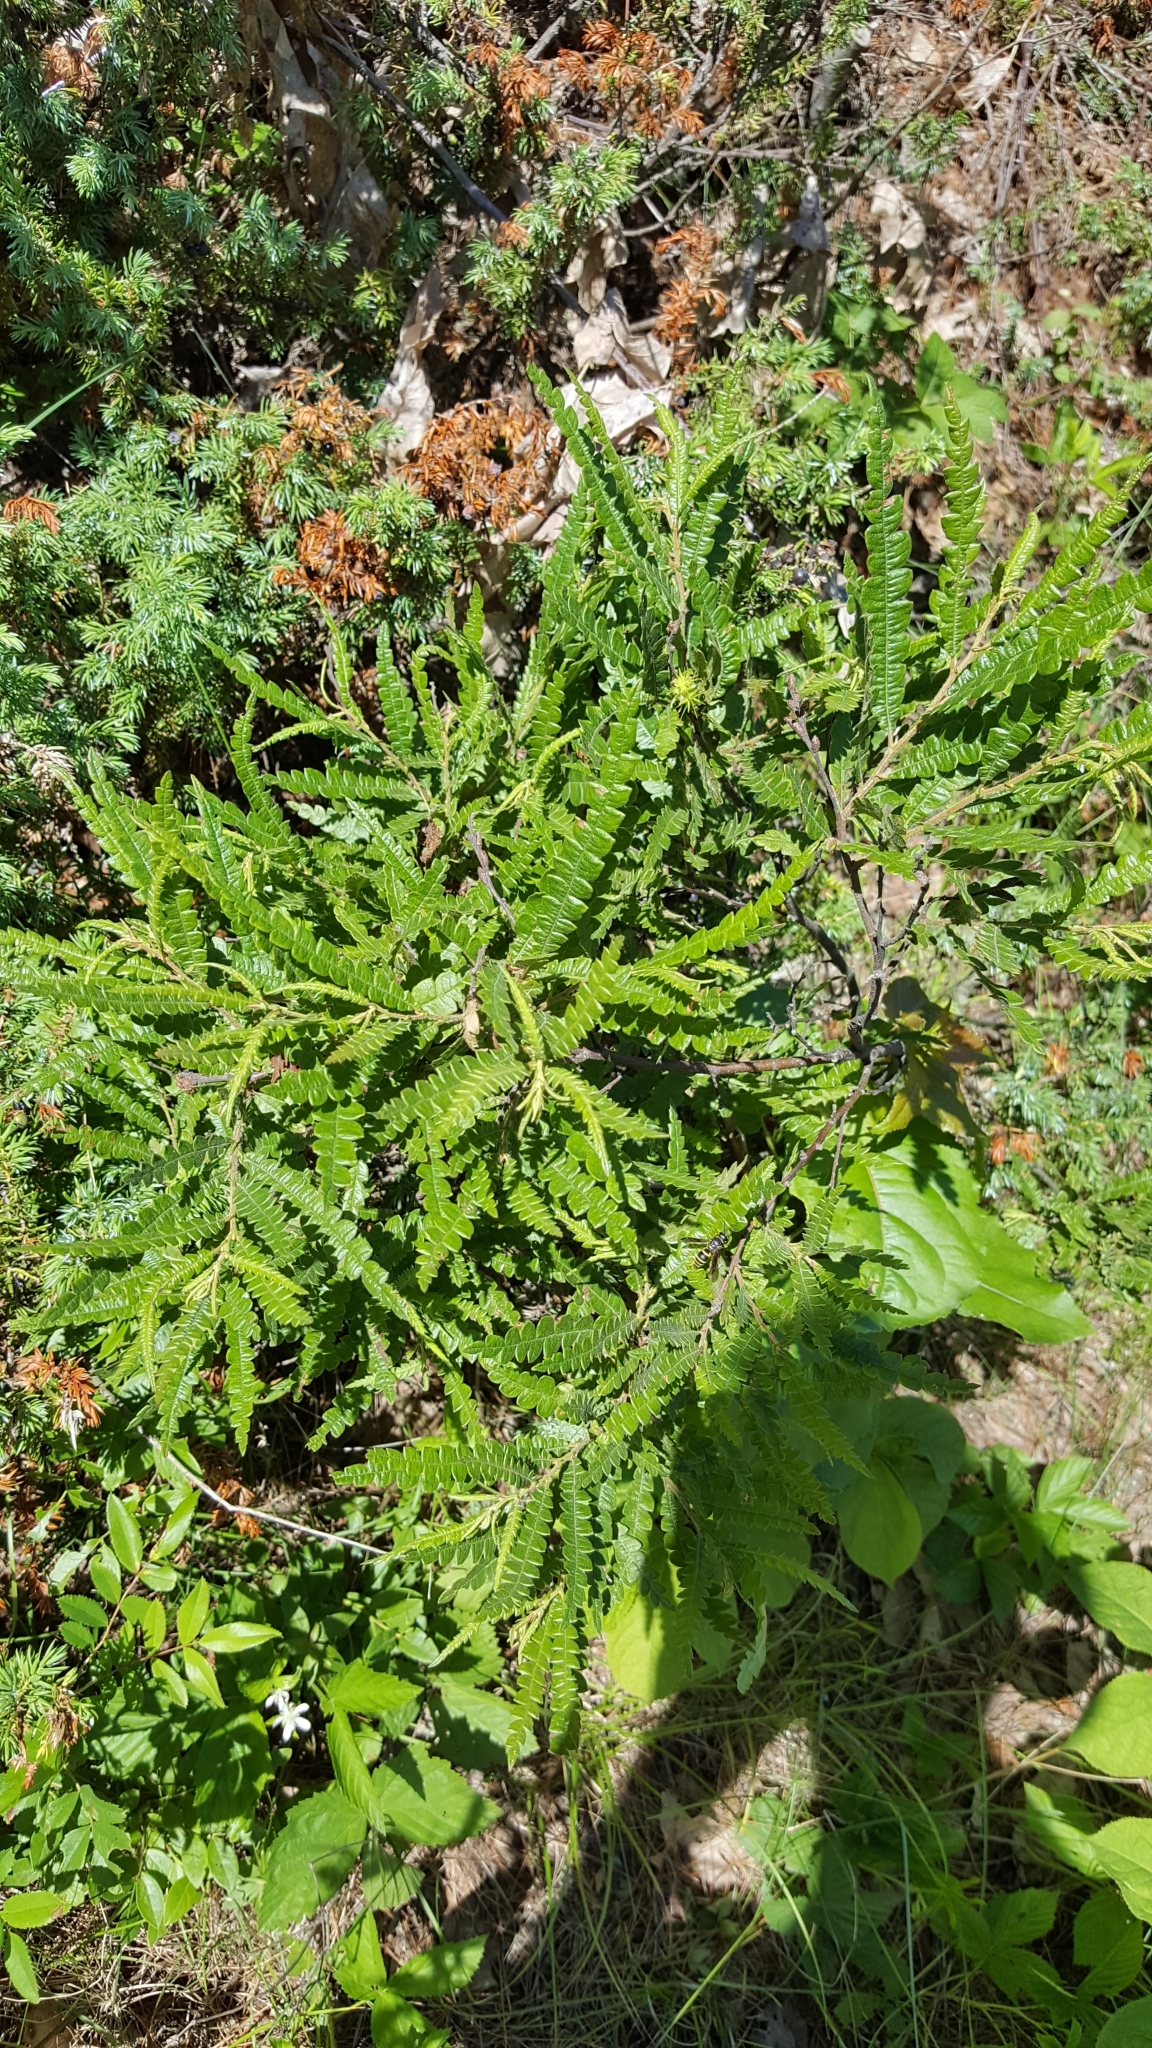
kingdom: Plantae
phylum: Tracheophyta
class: Magnoliopsida
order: Fagales
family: Myricaceae
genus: Comptonia
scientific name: Comptonia peregrina
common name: Sweet-fern
